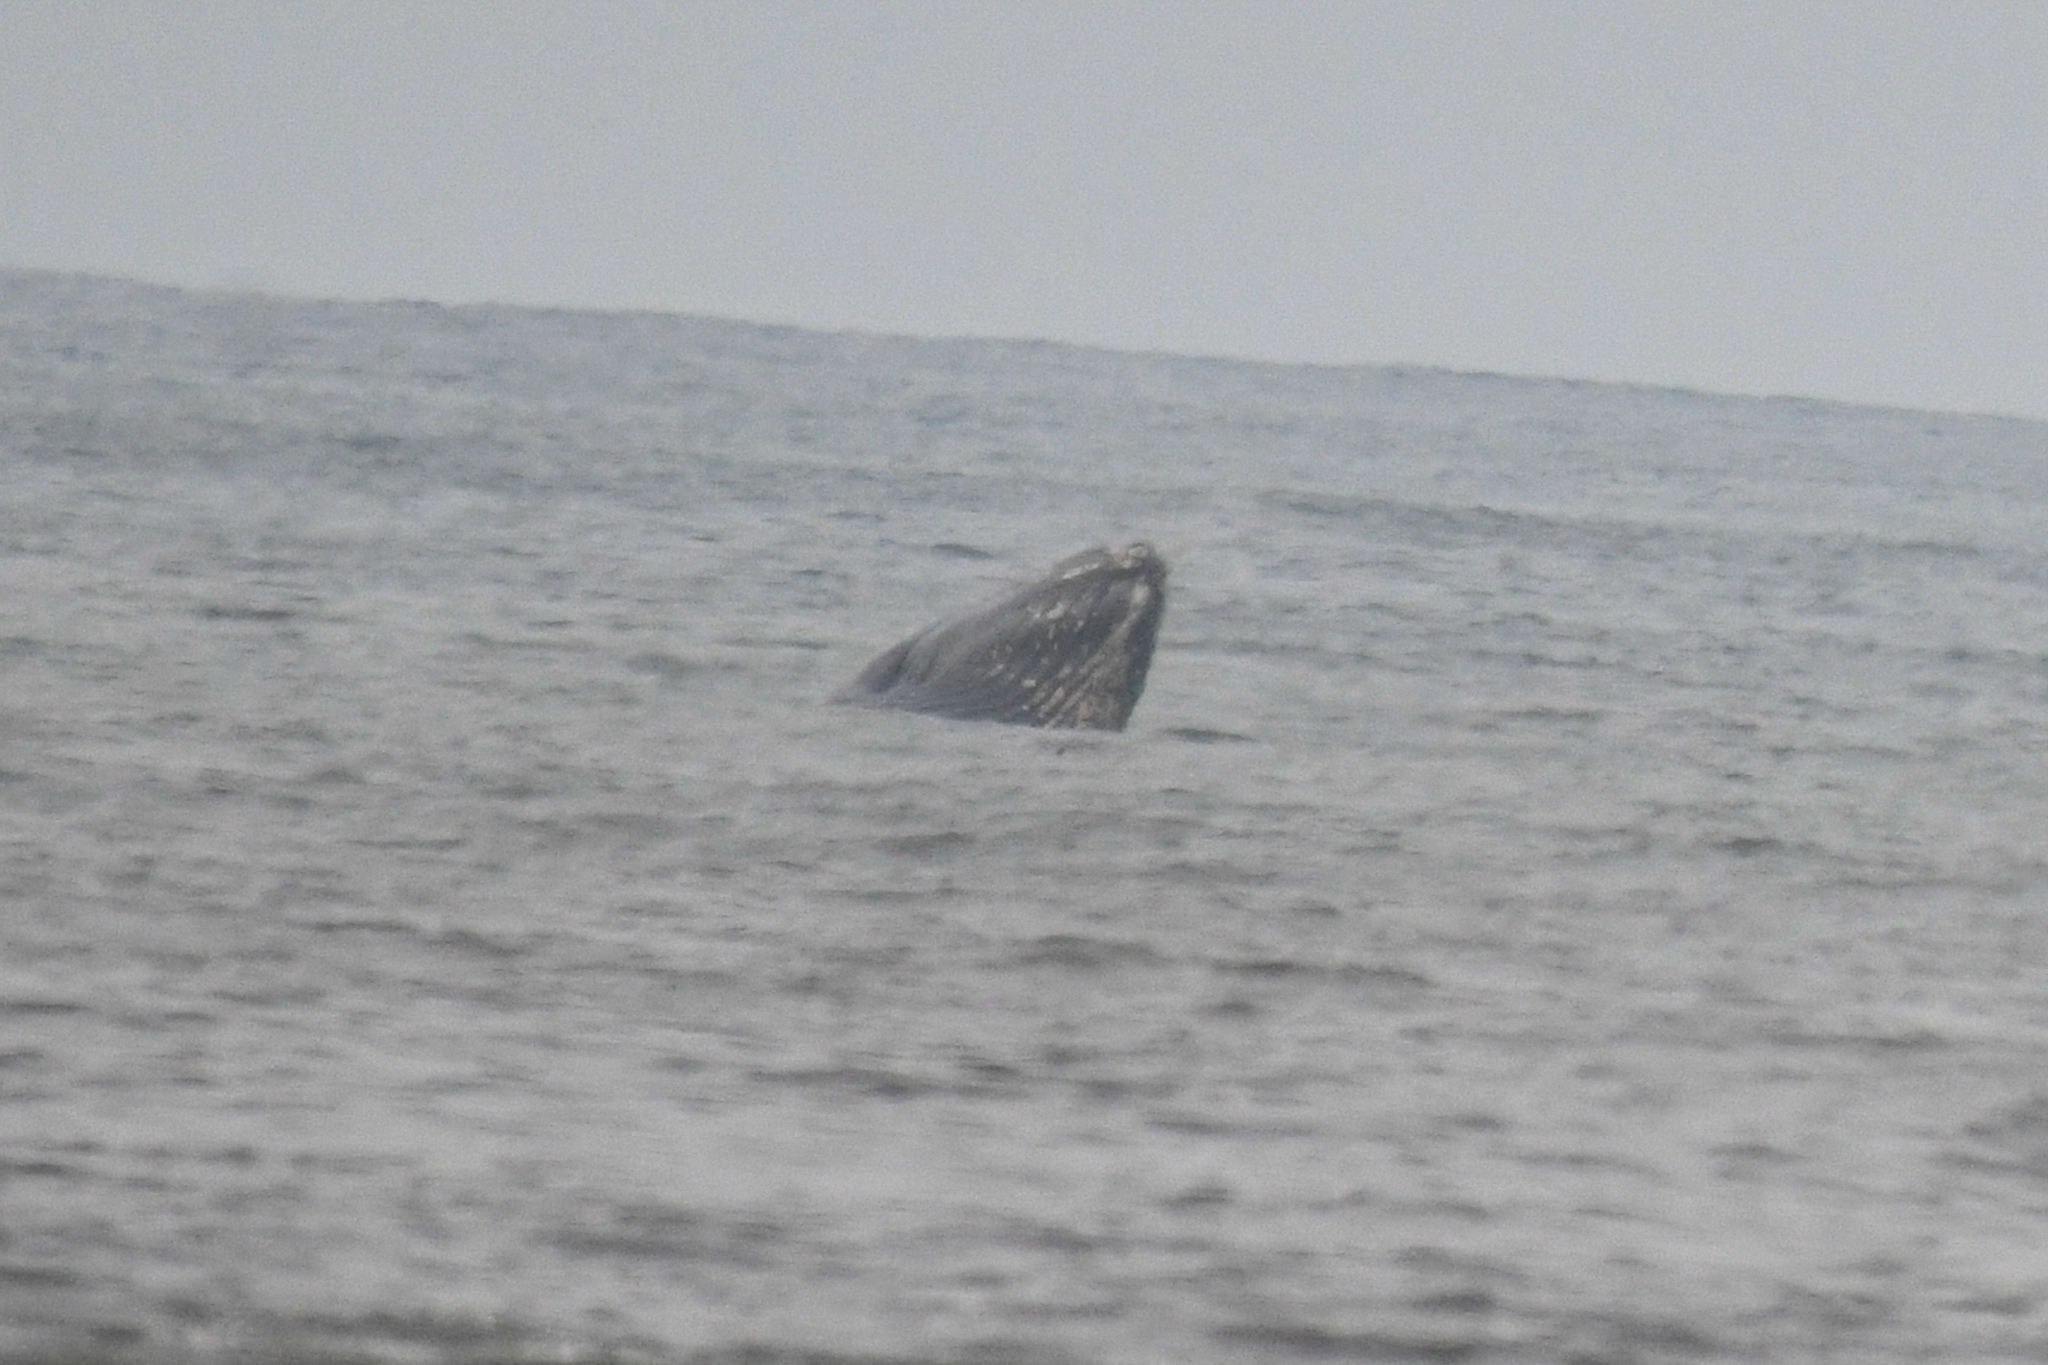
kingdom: Animalia
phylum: Chordata
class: Mammalia
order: Cetacea
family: Balaenopteridae
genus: Megaptera
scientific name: Megaptera novaeangliae
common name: Humpback whale
